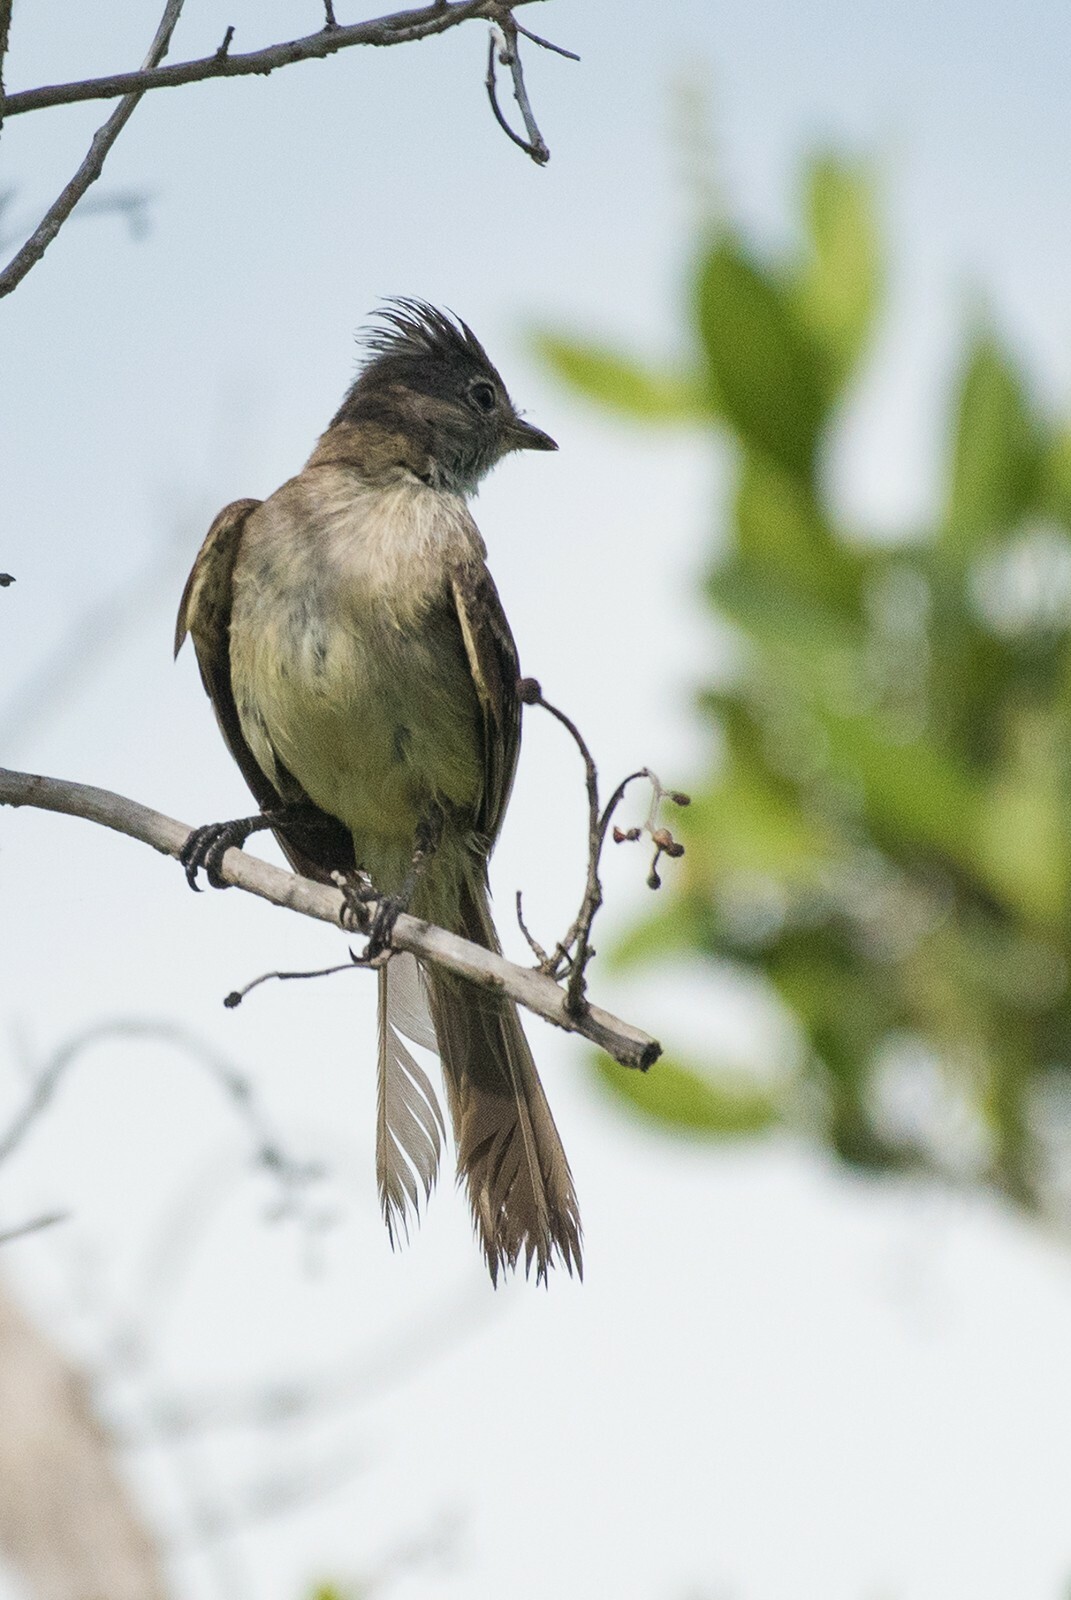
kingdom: Animalia
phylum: Chordata
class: Aves
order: Passeriformes
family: Tyrannidae
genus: Elaenia
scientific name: Elaenia flavogaster
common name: Yellow-bellied elaenia
